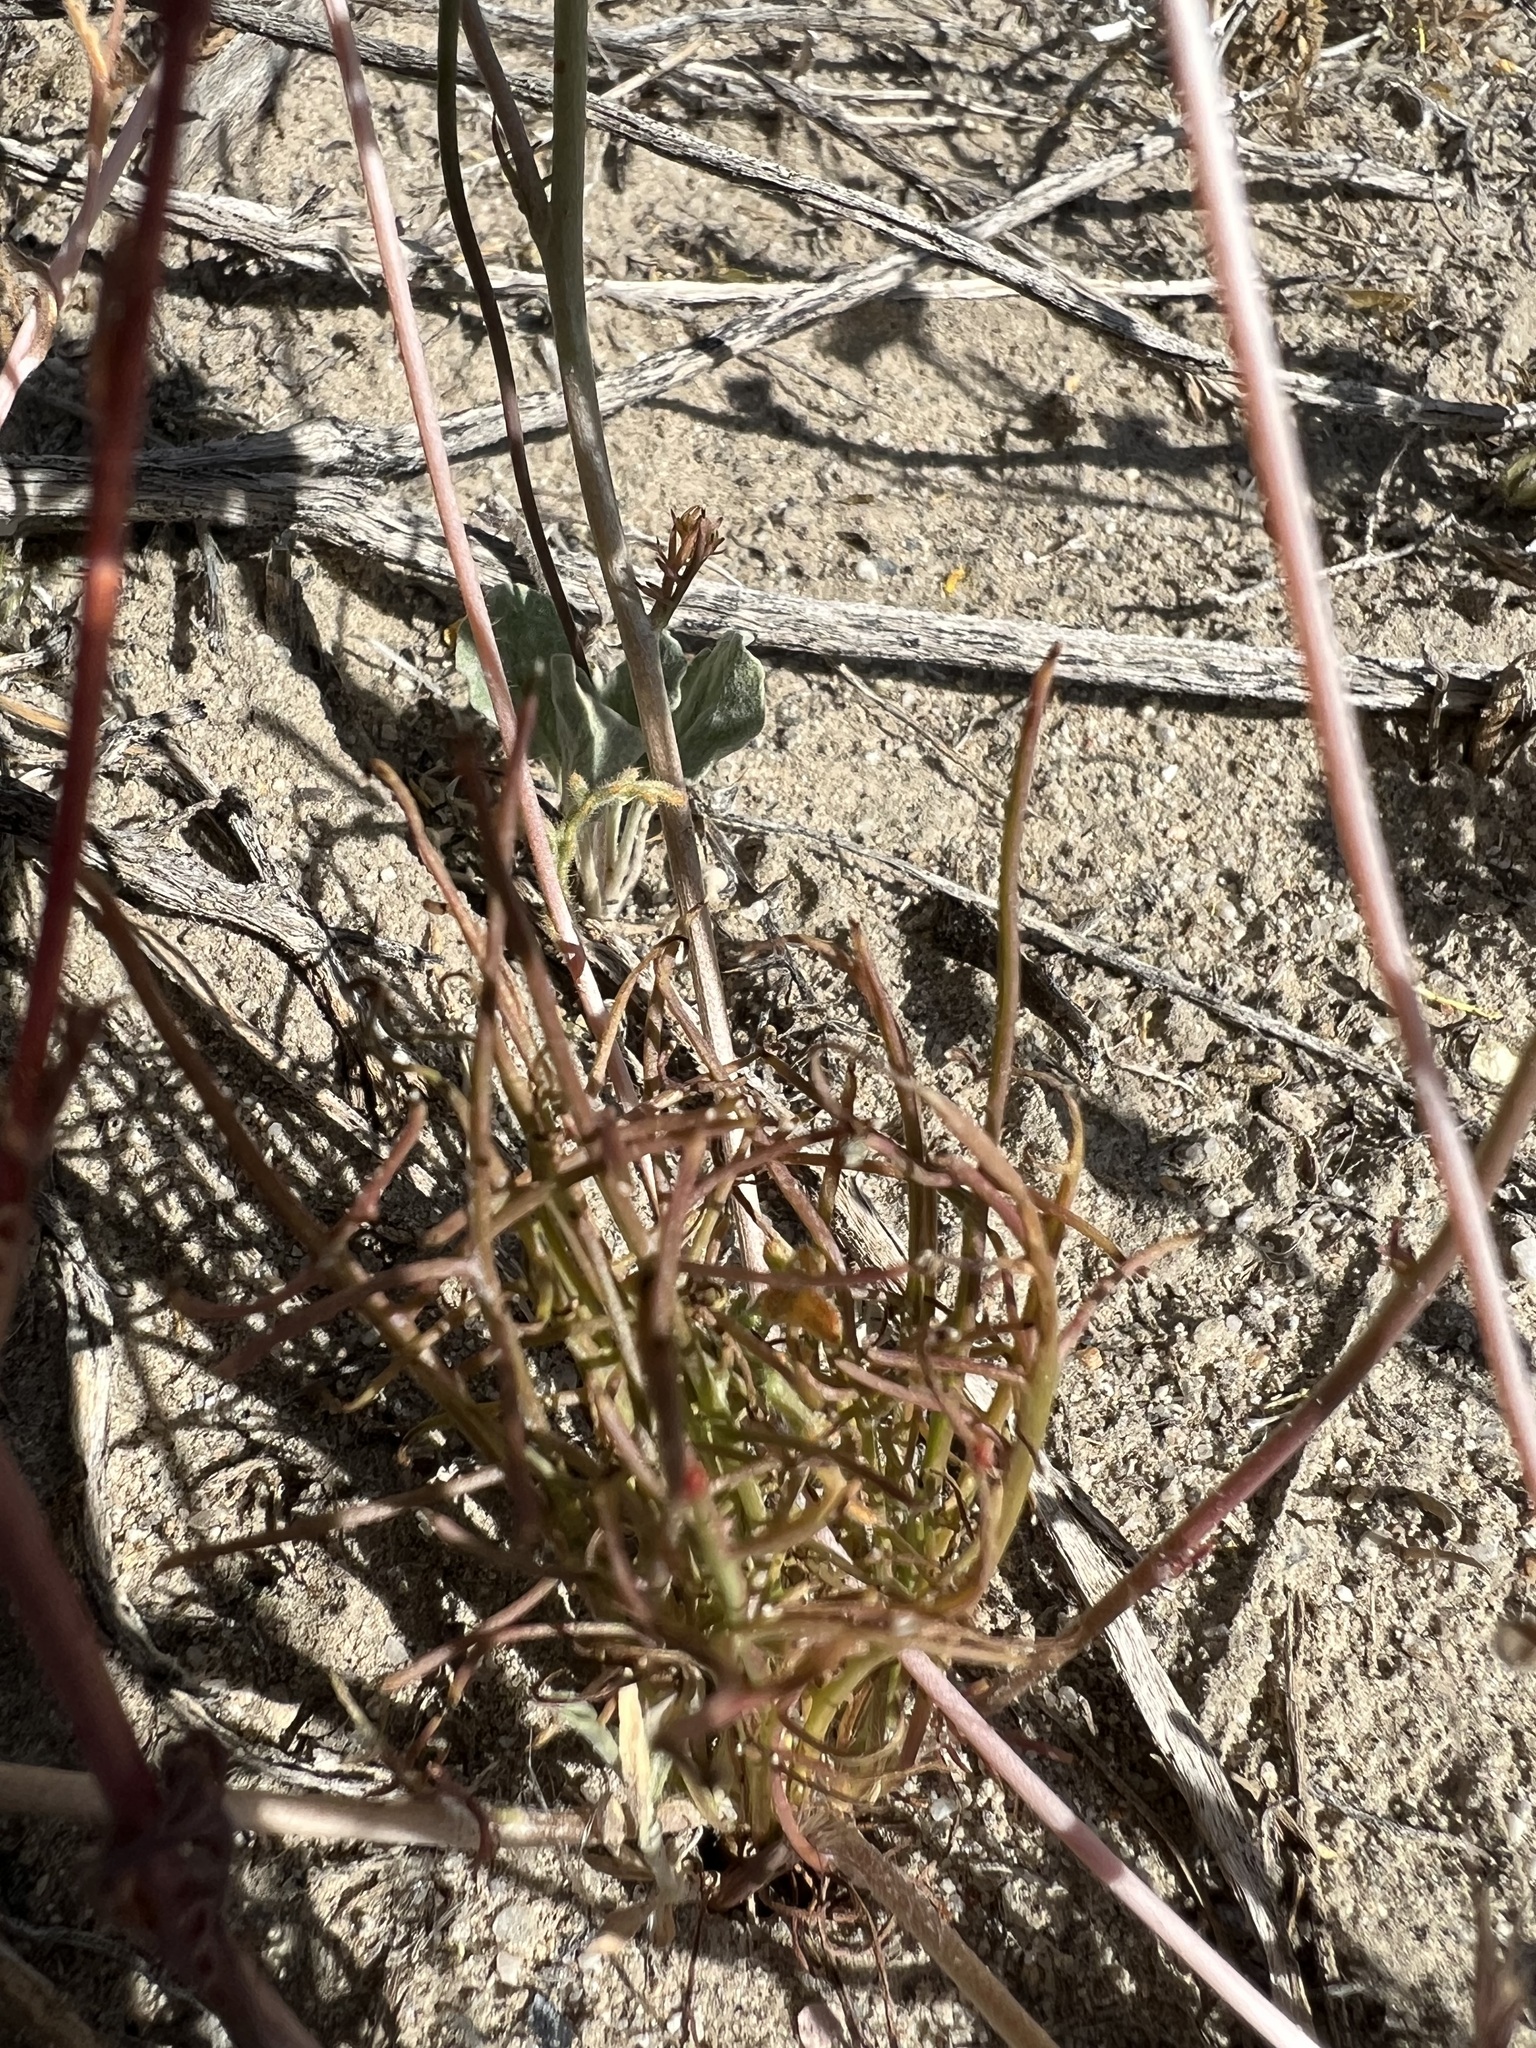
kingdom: Plantae
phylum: Tracheophyta
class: Magnoliopsida
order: Asterales
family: Asteraceae
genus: Malacothrix
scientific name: Malacothrix glabrata
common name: Smooth desert-dandelion
